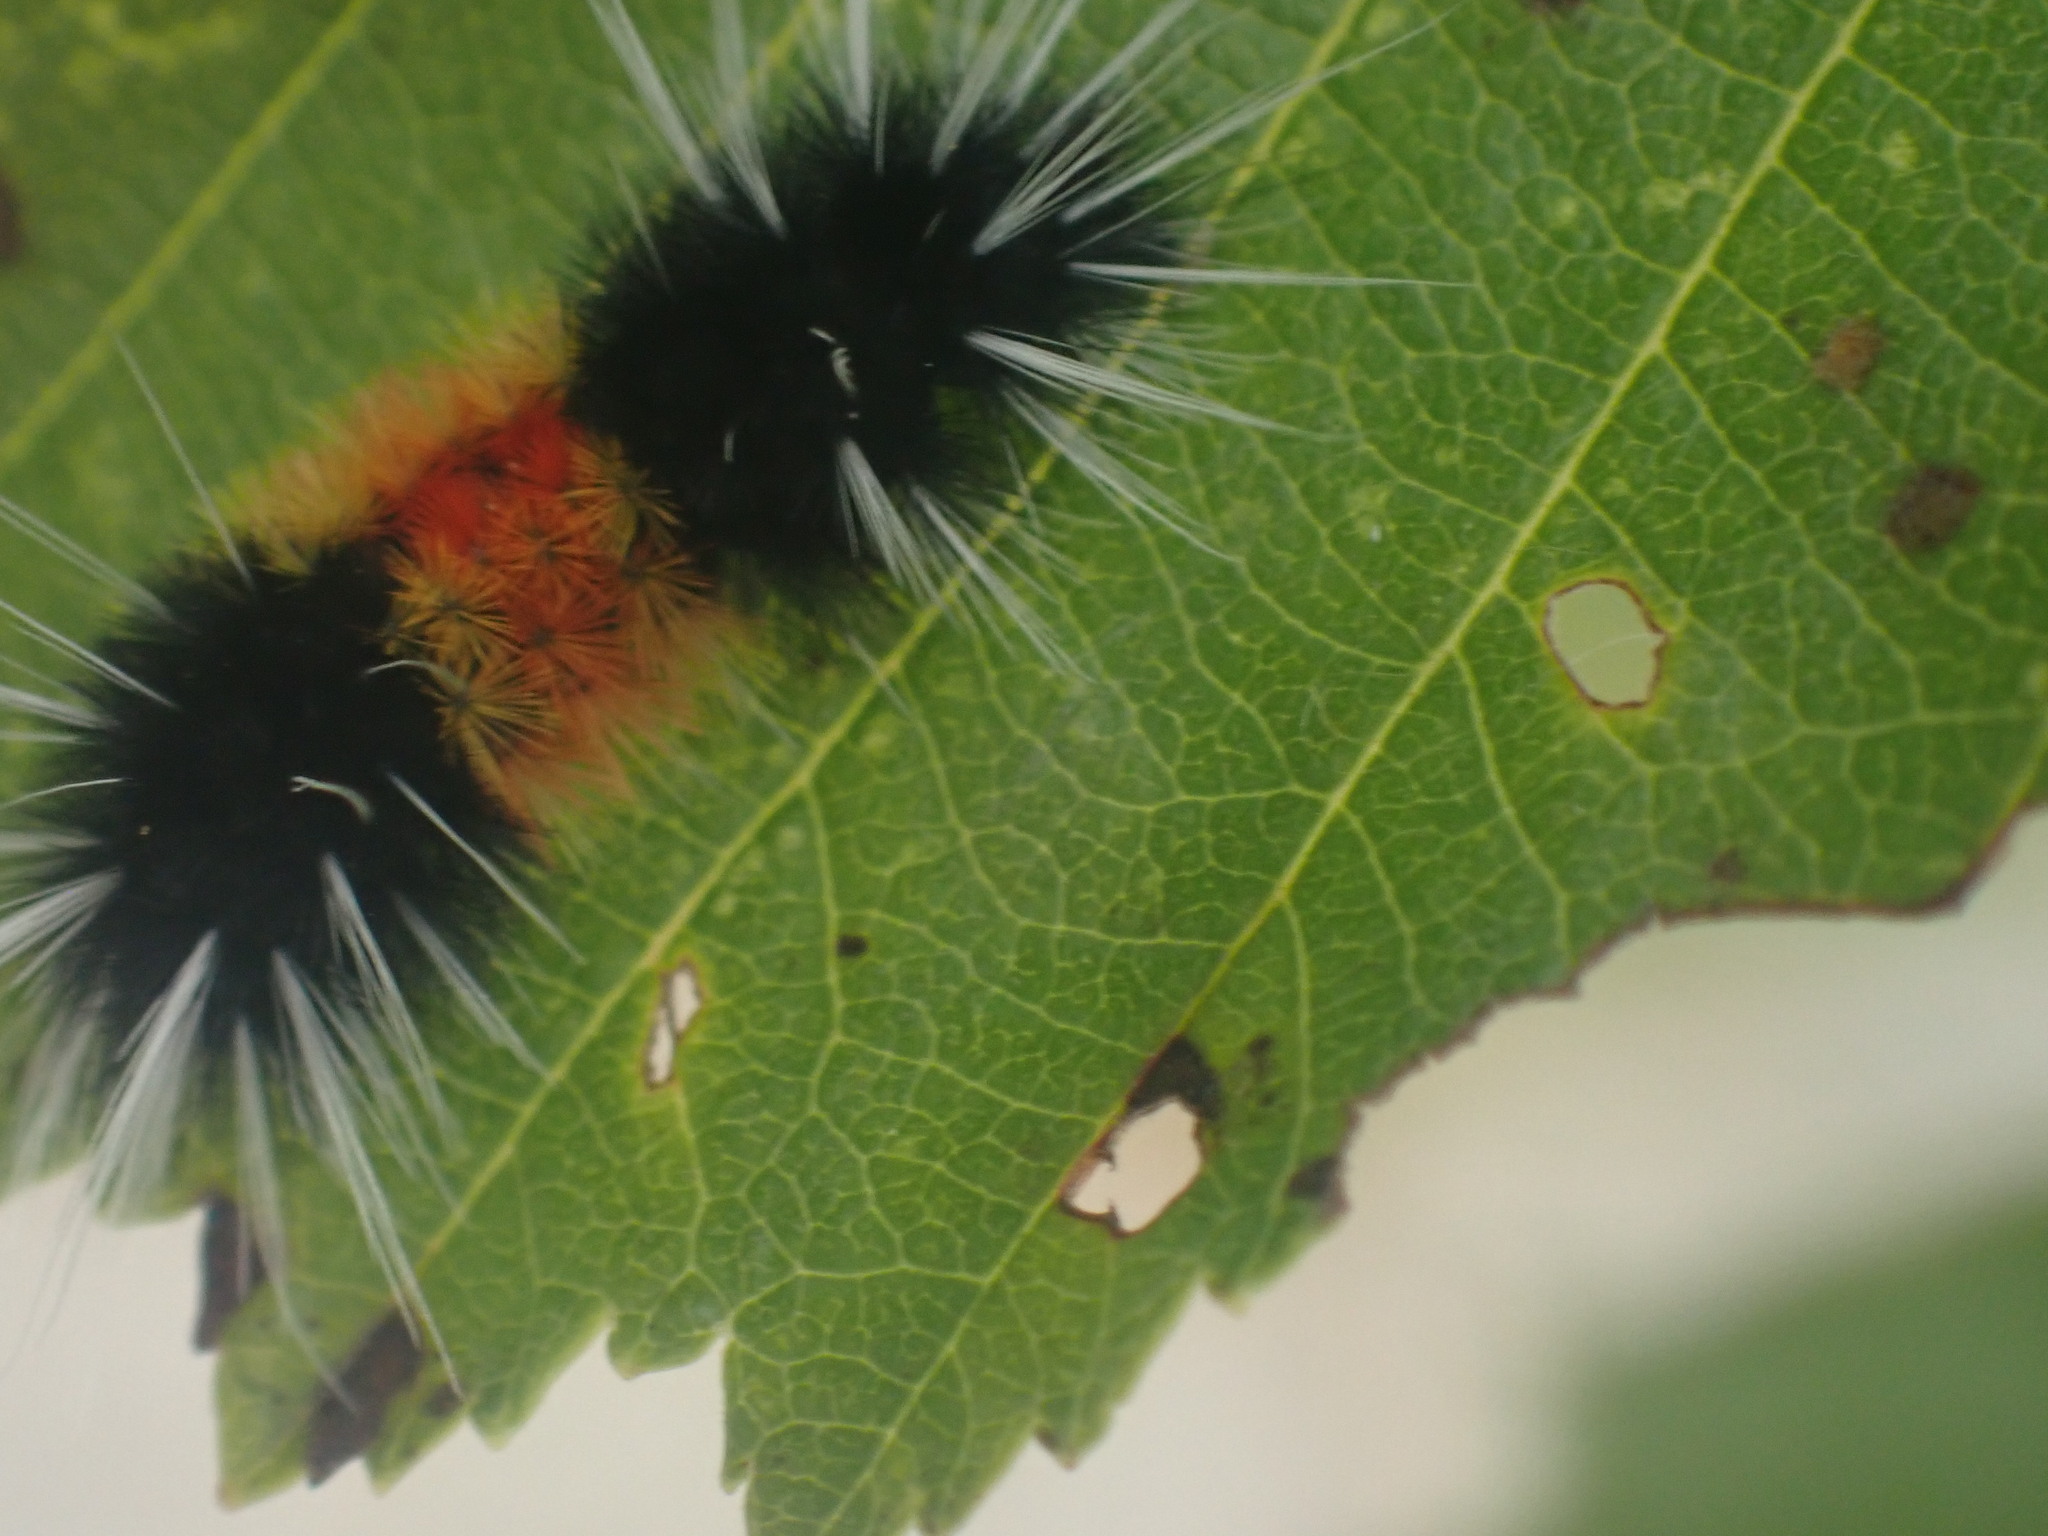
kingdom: Animalia
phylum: Arthropoda
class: Insecta
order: Lepidoptera
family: Erebidae
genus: Lophocampa
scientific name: Lophocampa maculata
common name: Spotted tussock moth
